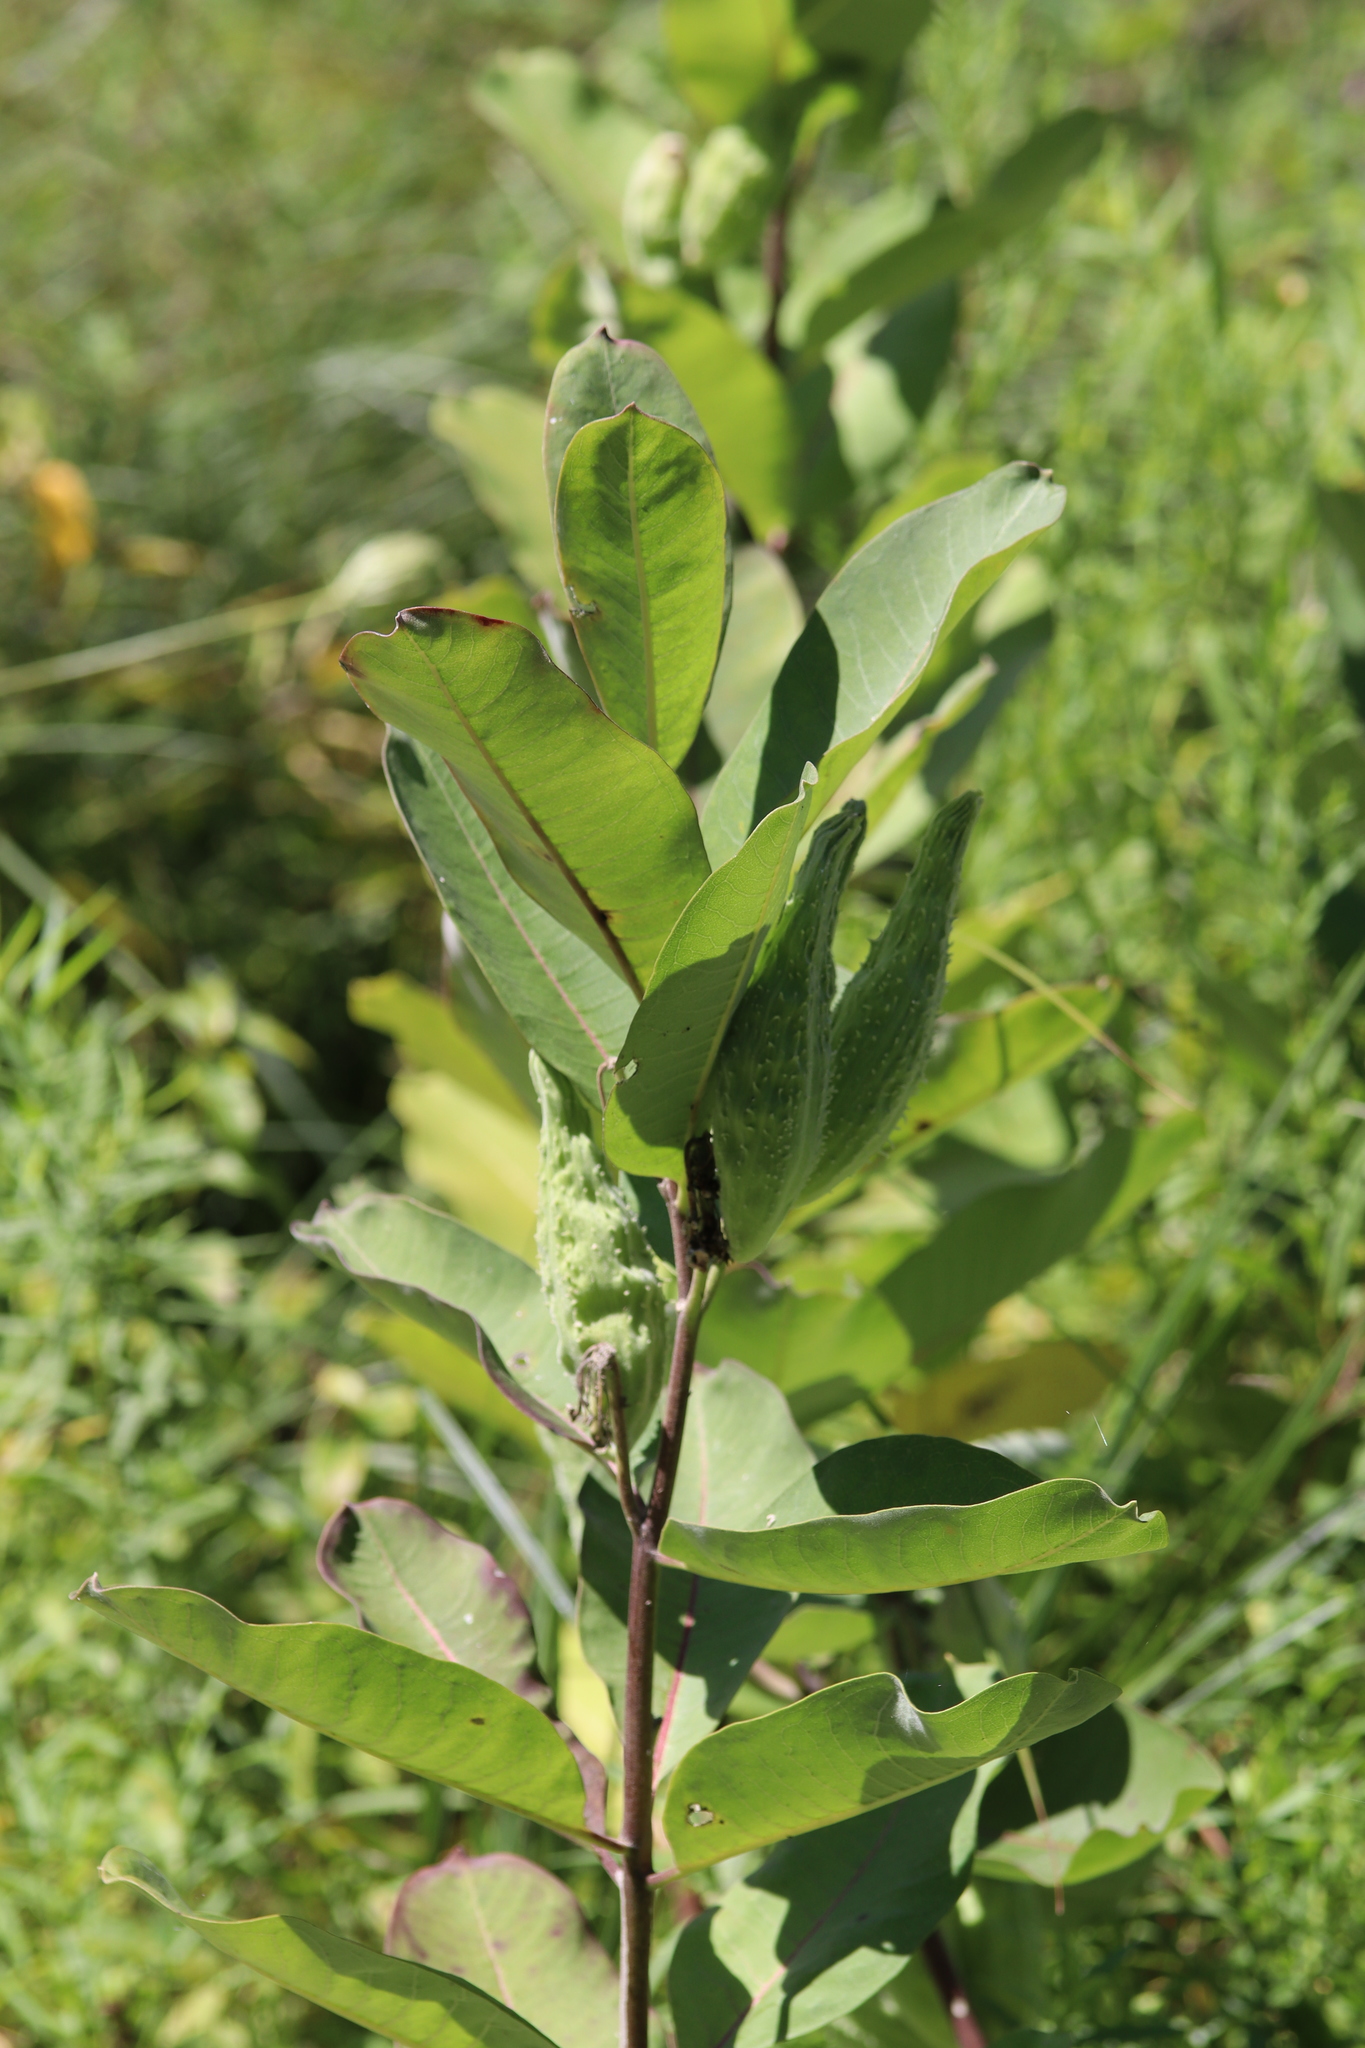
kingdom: Plantae
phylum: Tracheophyta
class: Magnoliopsida
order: Gentianales
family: Apocynaceae
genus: Asclepias
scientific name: Asclepias syriaca
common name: Common milkweed
